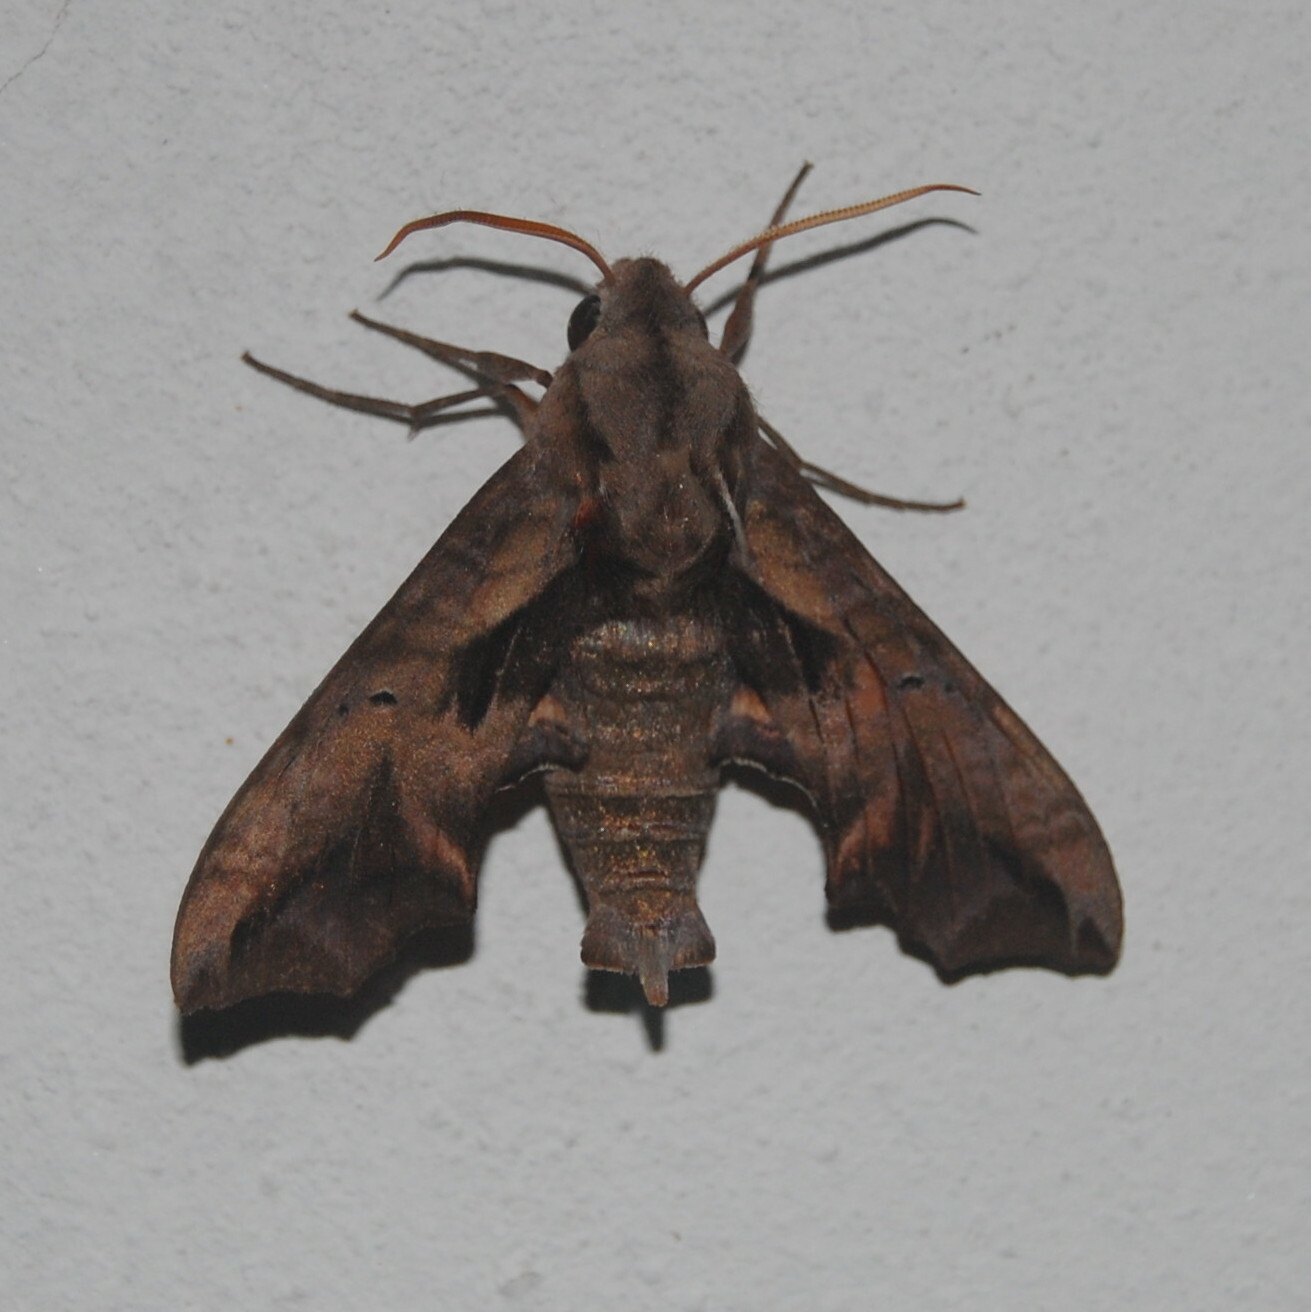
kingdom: Animalia
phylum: Arthropoda
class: Insecta
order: Lepidoptera
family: Sphingidae
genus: Nyceryx
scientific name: Nyceryx continua
